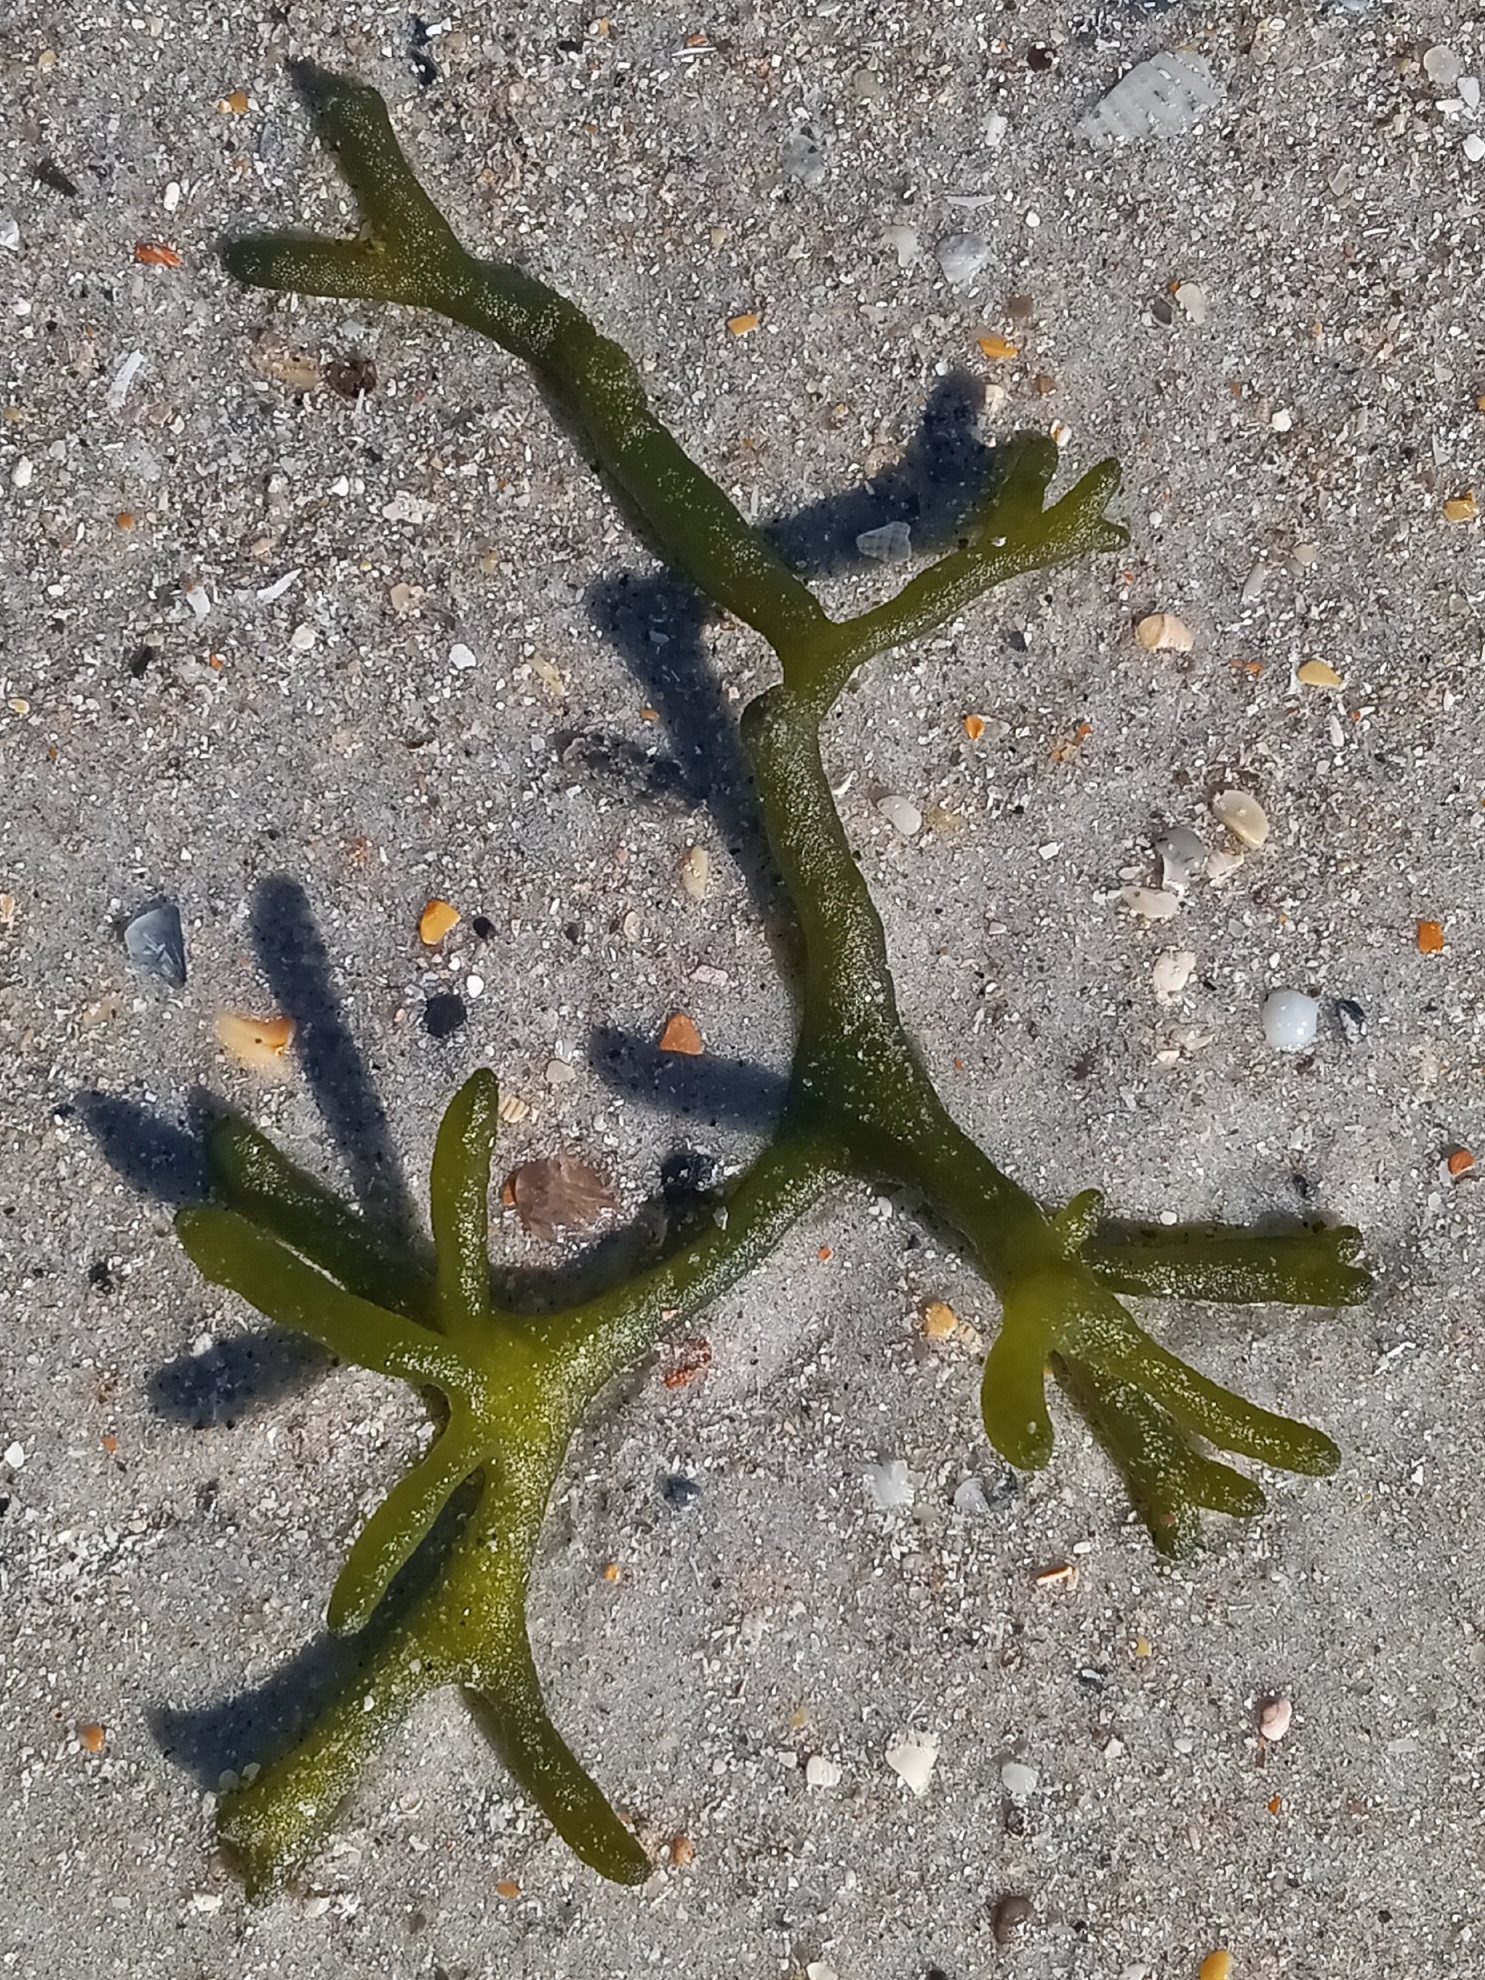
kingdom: Plantae
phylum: Chlorophyta
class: Ulvophyceae
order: Bryopsidales
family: Codiaceae
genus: Codium
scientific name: Codium fragile
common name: Dead man's fingers
